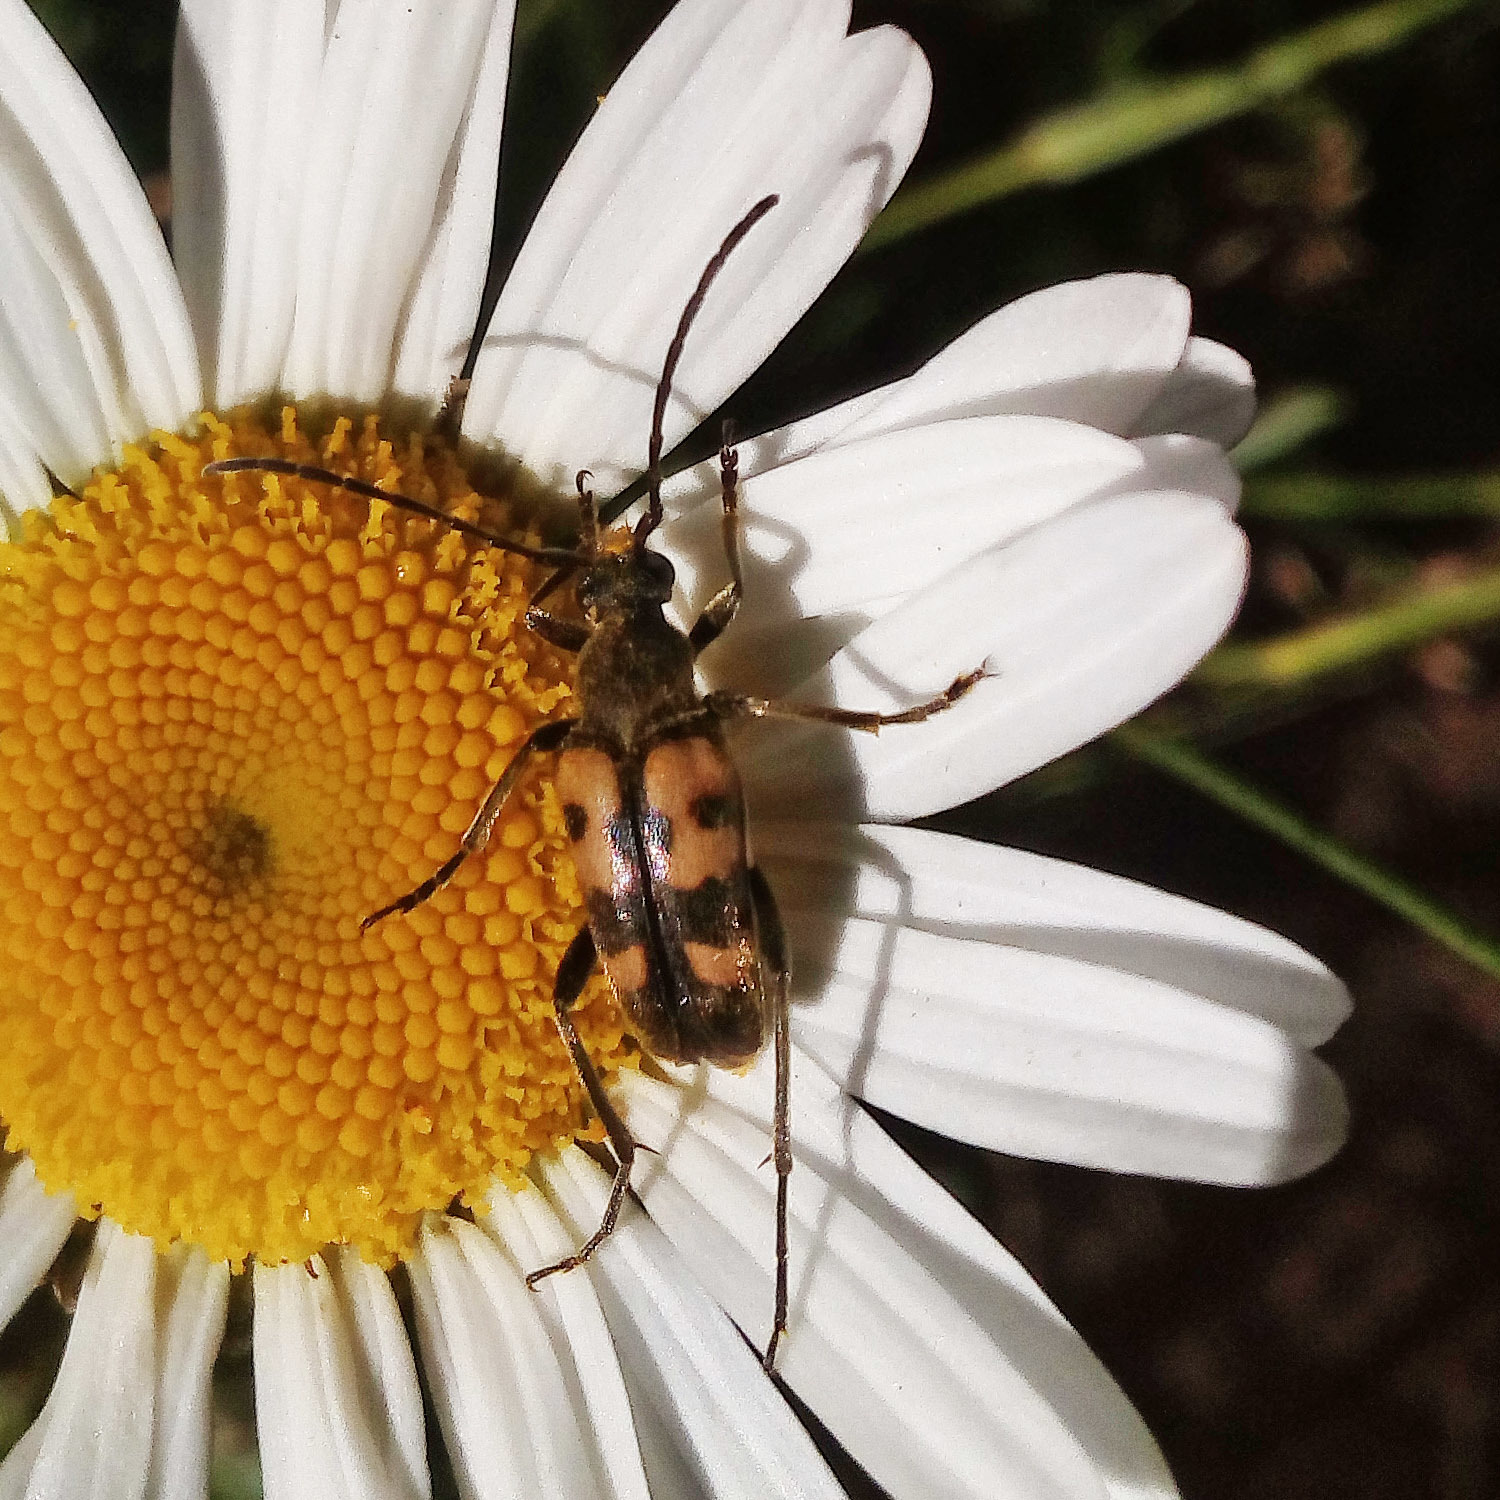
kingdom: Animalia
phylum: Arthropoda
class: Insecta
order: Coleoptera
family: Cerambycidae
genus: Pachytodes
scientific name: Pachytodes
